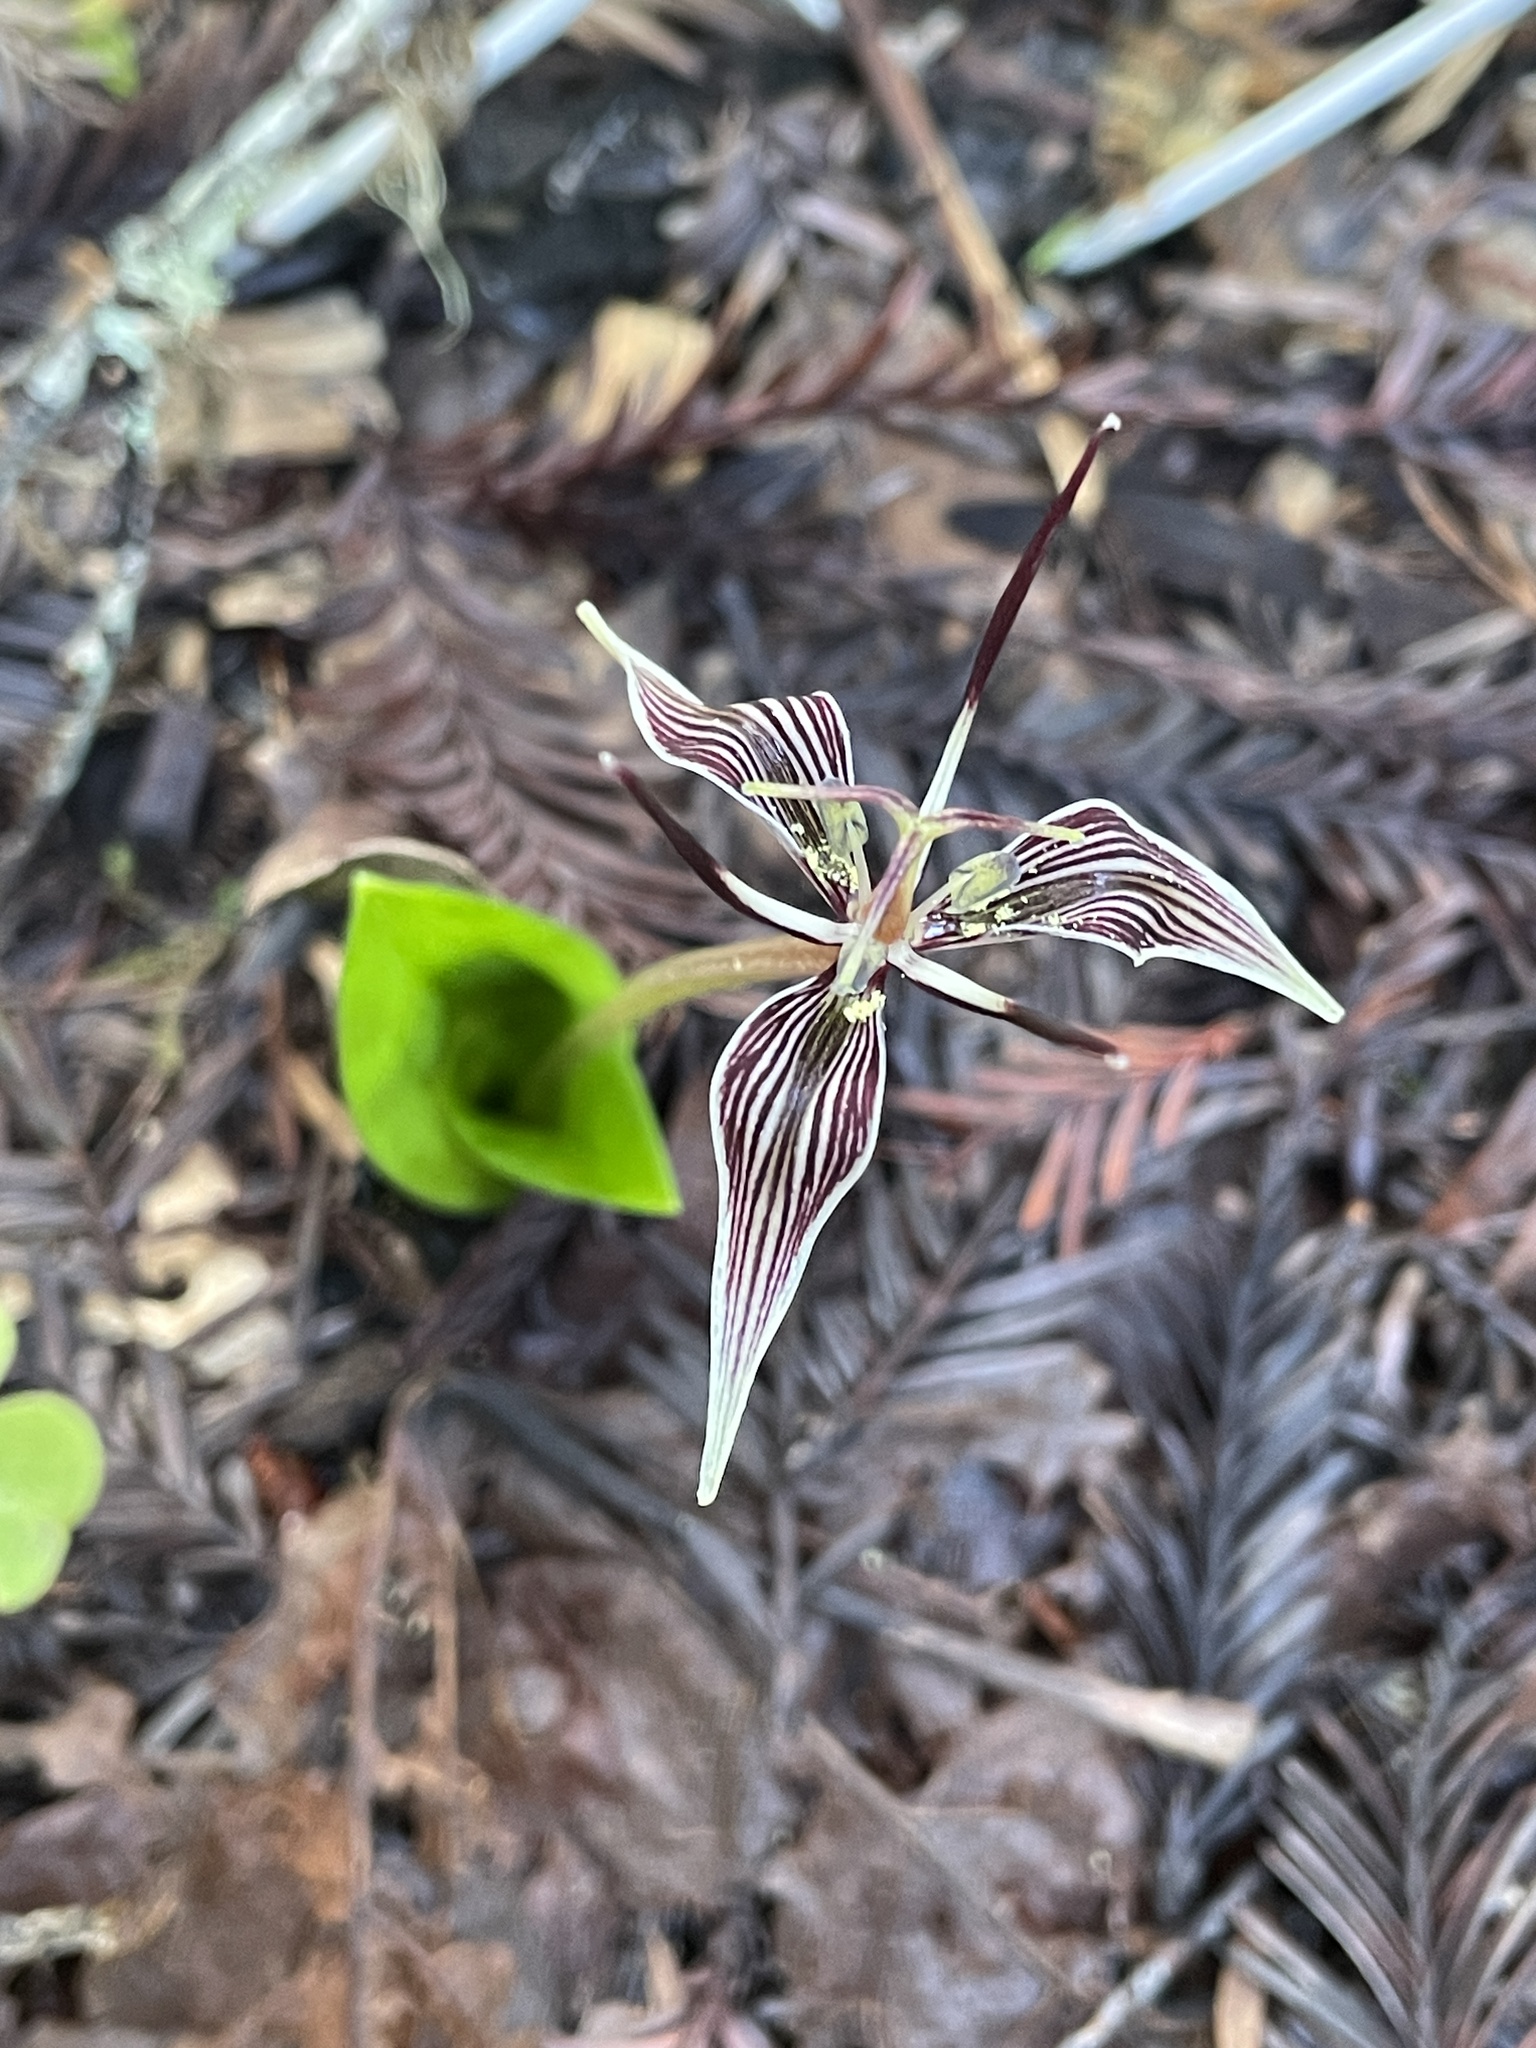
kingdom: Plantae
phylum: Tracheophyta
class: Liliopsida
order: Liliales
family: Liliaceae
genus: Scoliopus
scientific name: Scoliopus bigelovii
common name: Foetid adder's-tongue
